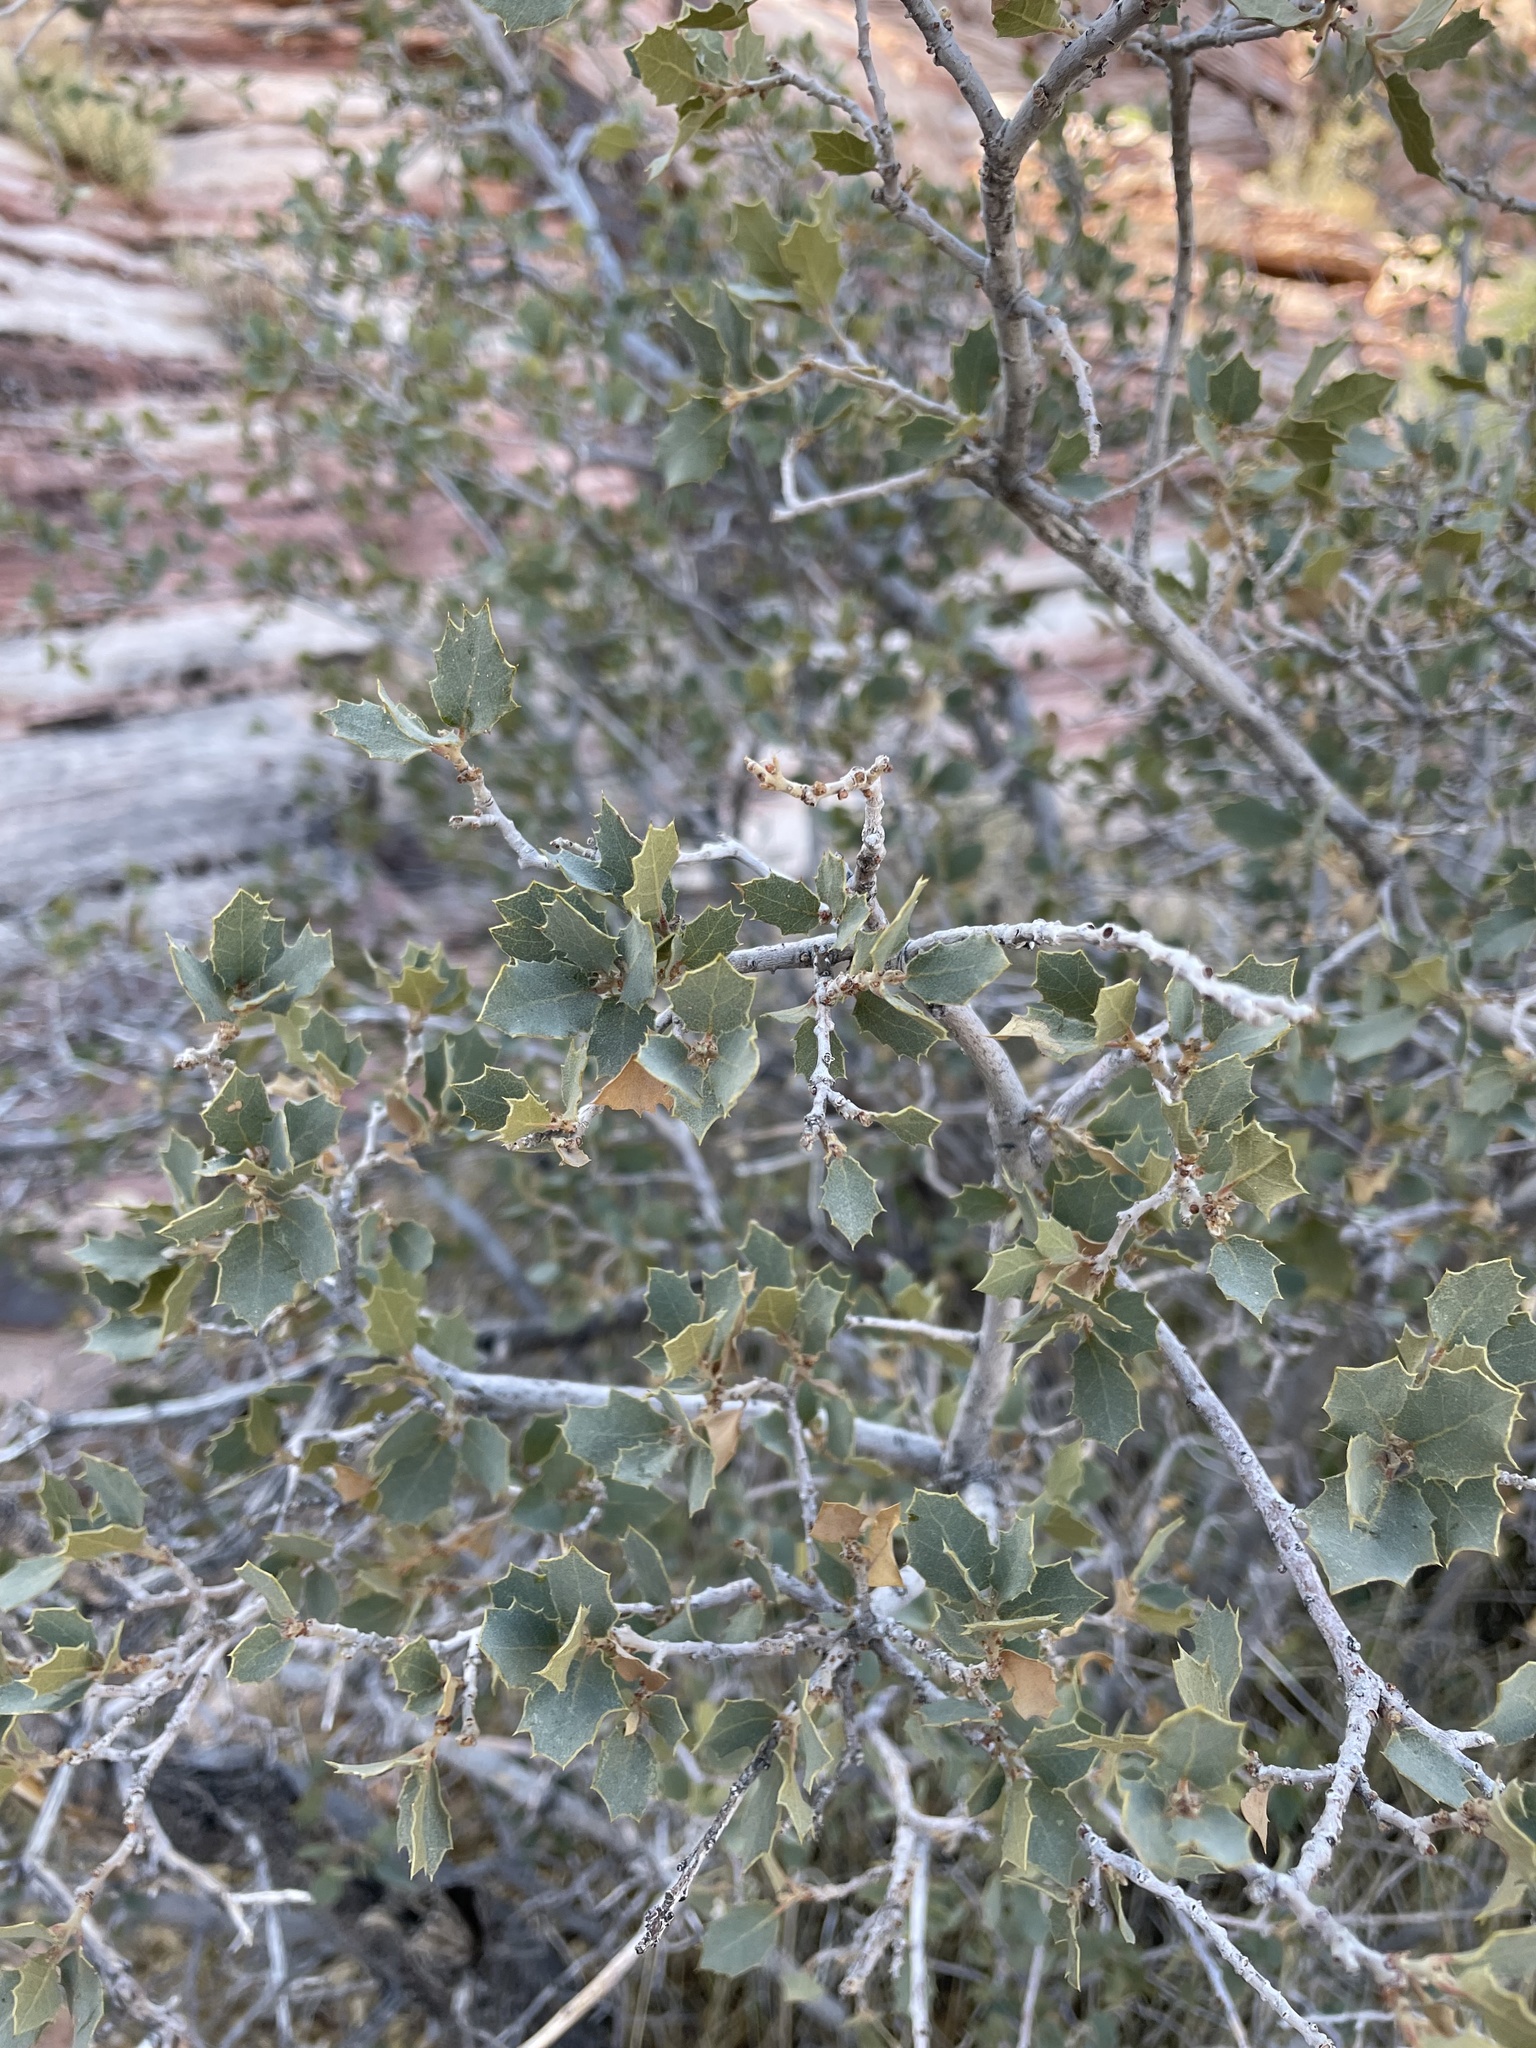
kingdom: Plantae
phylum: Tracheophyta
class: Magnoliopsida
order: Fagales
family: Fagaceae
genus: Quercus
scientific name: Quercus turbinella
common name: Sonoran scrub oak
